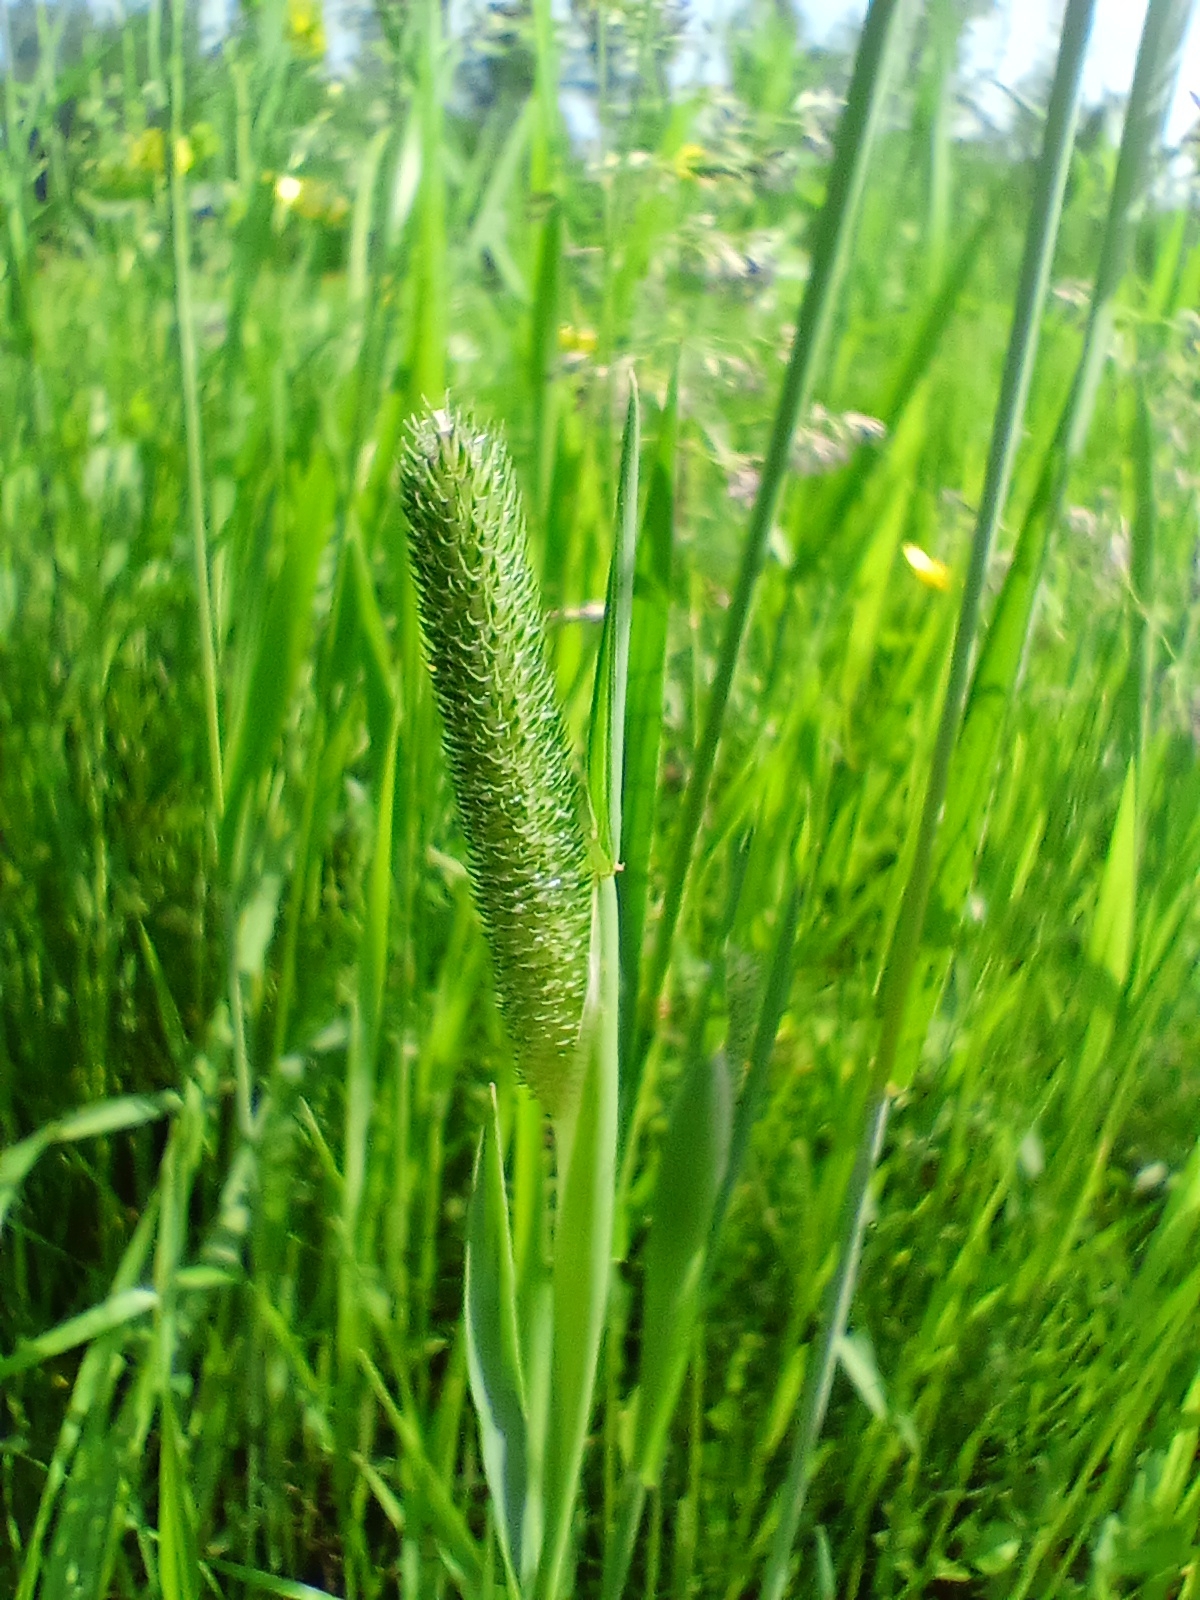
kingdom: Plantae
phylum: Tracheophyta
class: Liliopsida
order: Poales
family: Poaceae
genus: Phleum
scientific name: Phleum pratense
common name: Timothy grass
